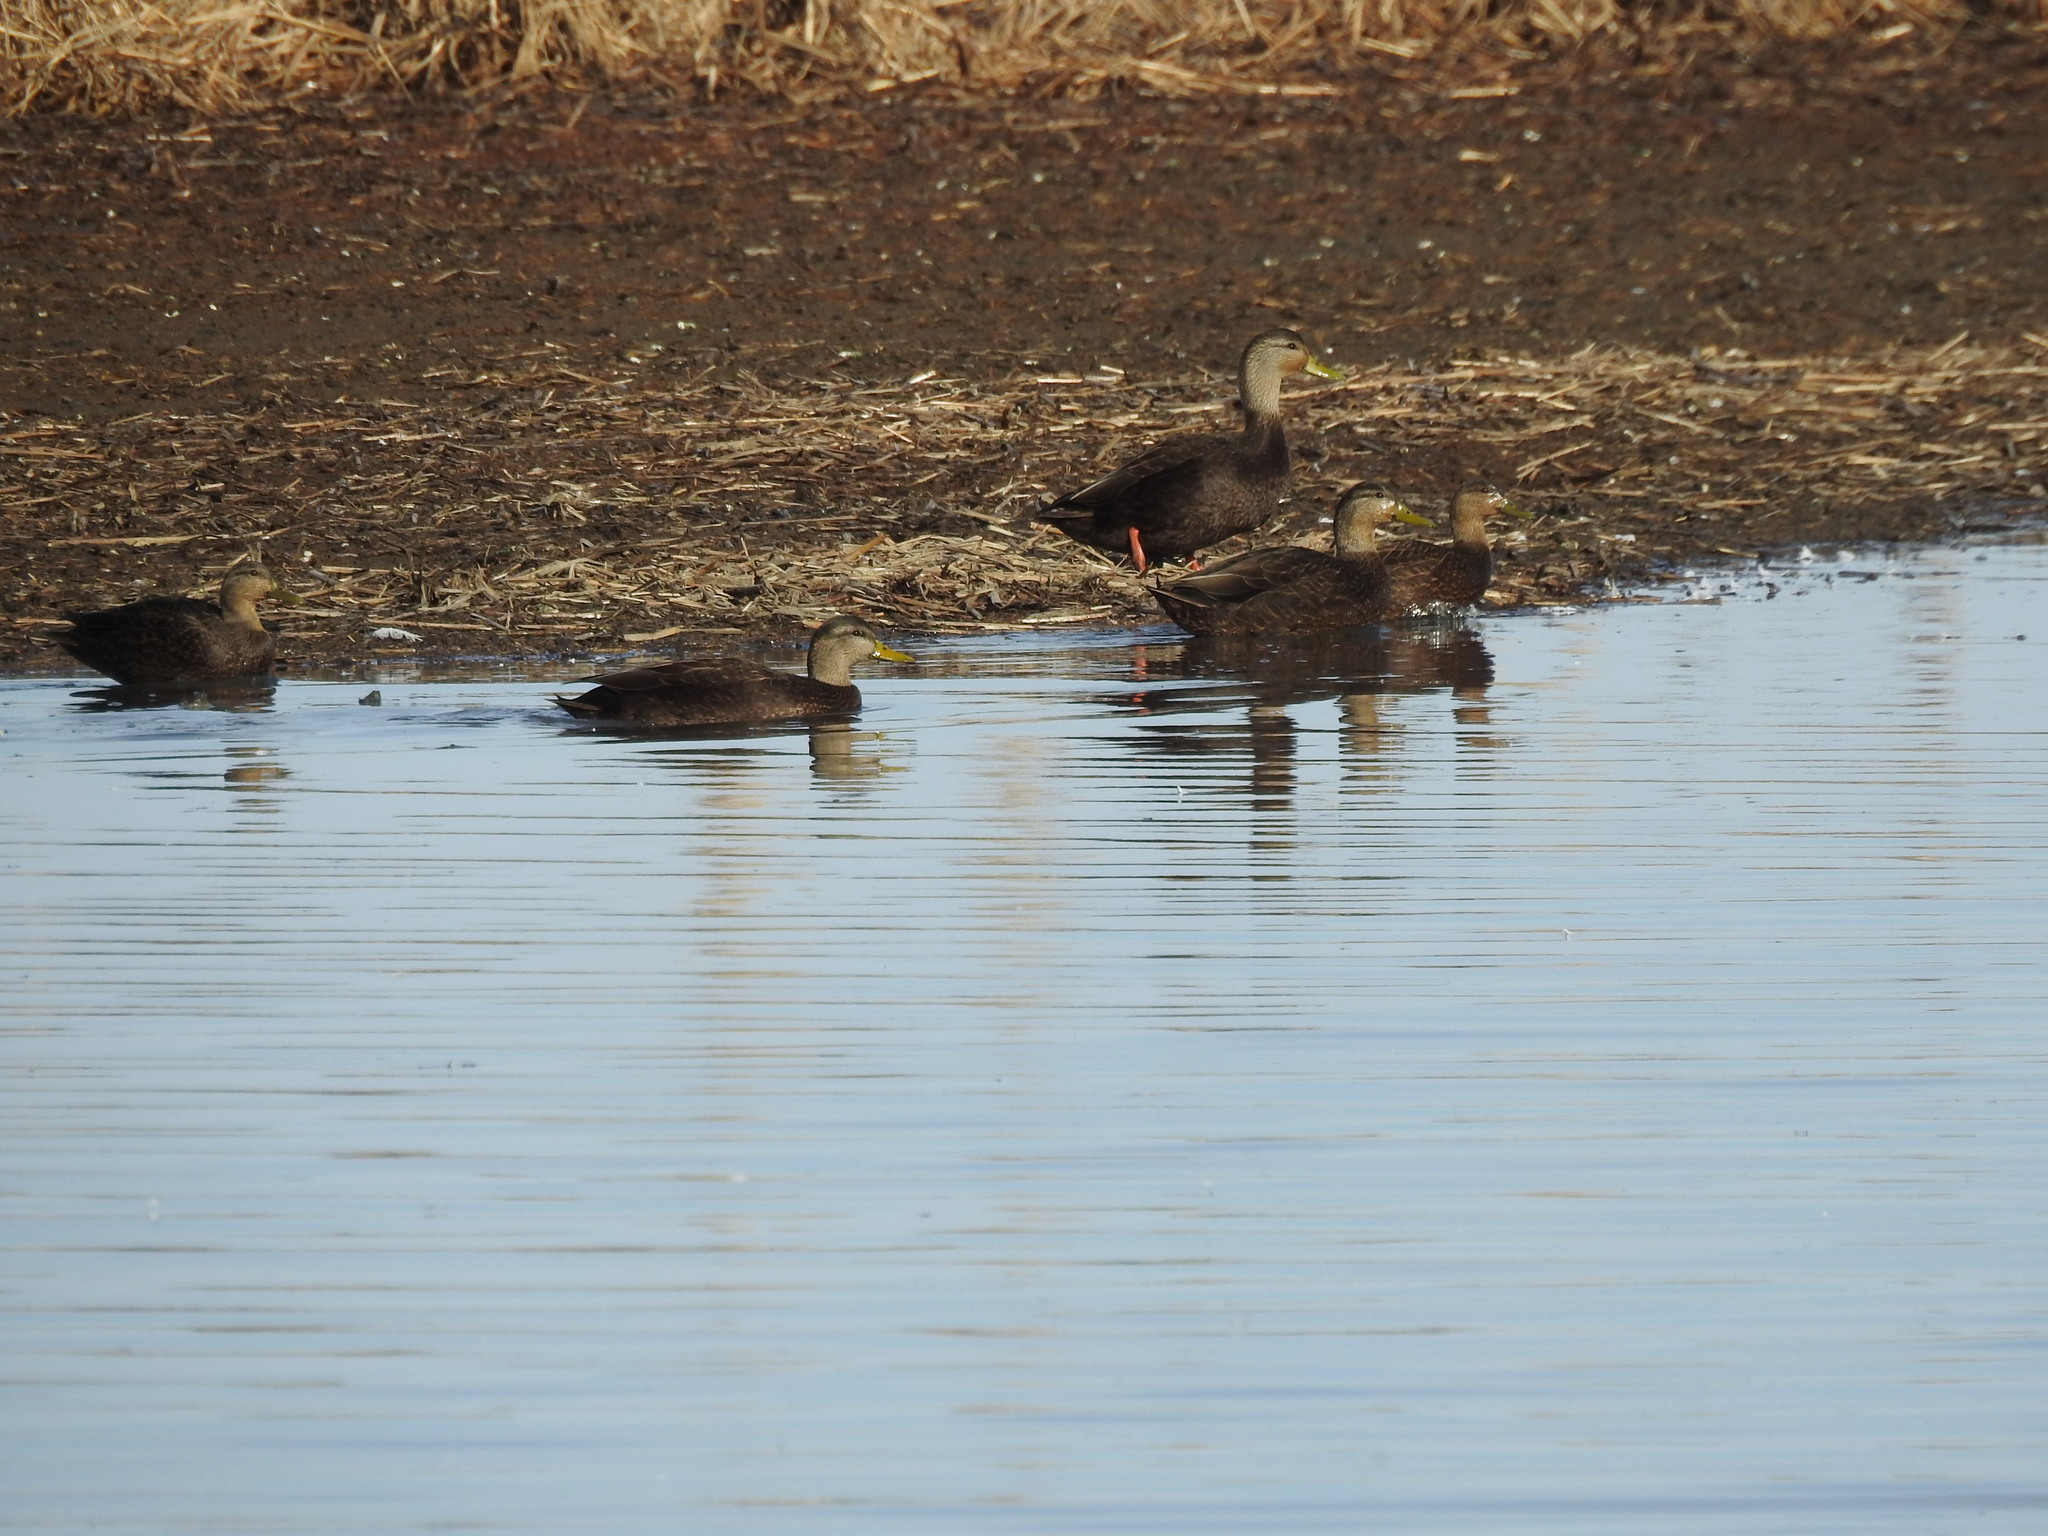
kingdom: Animalia
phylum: Chordata
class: Aves
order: Anseriformes
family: Anatidae
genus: Anas
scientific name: Anas rubripes
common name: American black duck
